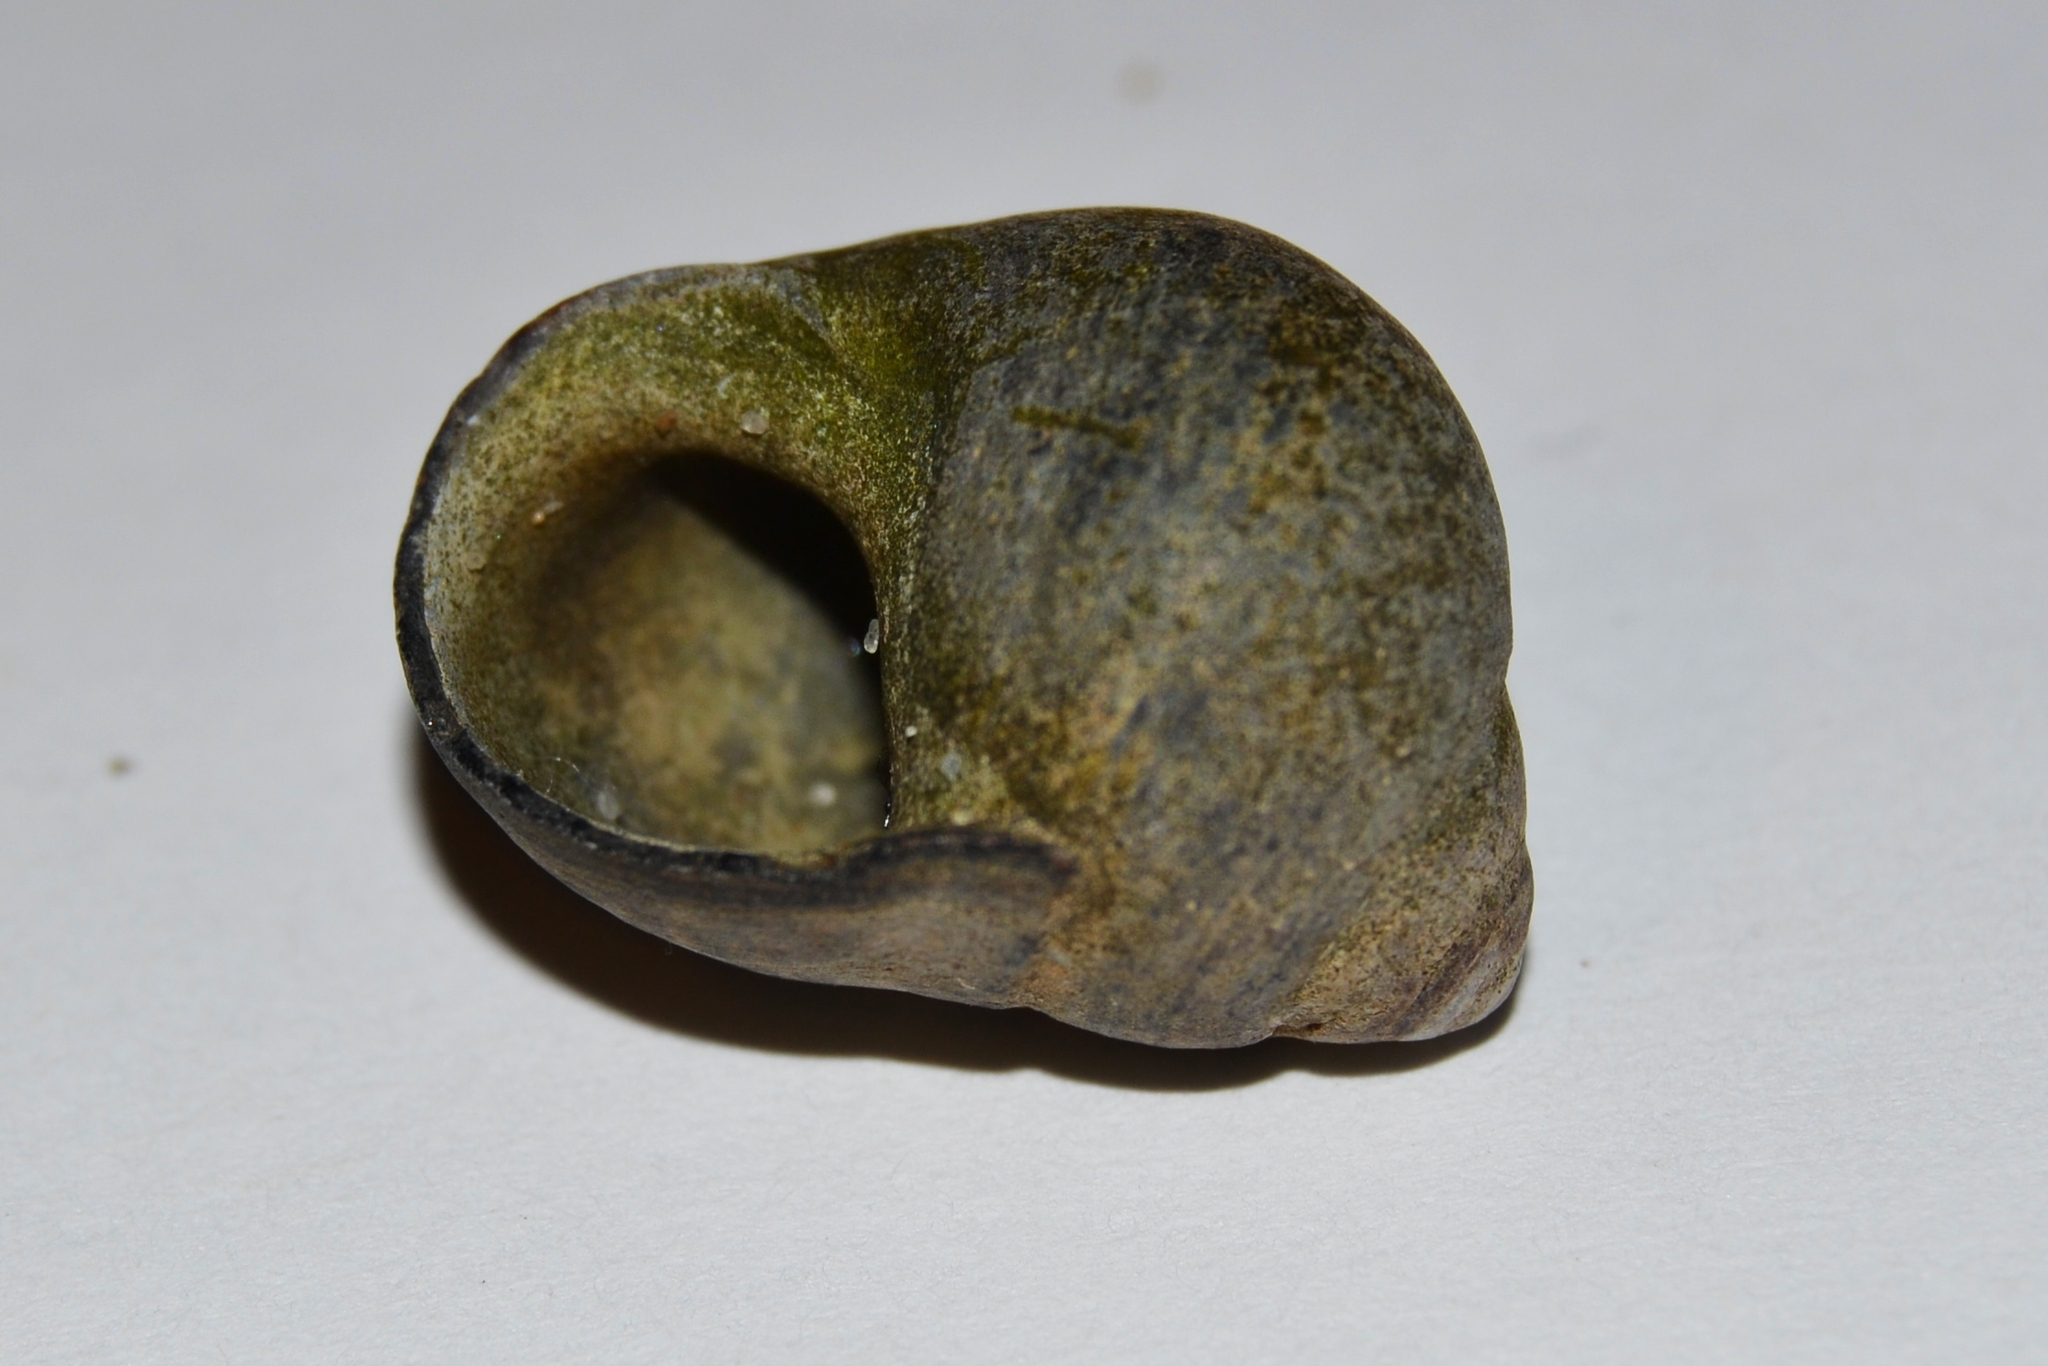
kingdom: Animalia
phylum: Mollusca
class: Gastropoda
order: Littorinimorpha
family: Littorinidae
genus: Littorina
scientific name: Littorina littorea
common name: Common periwinkle
